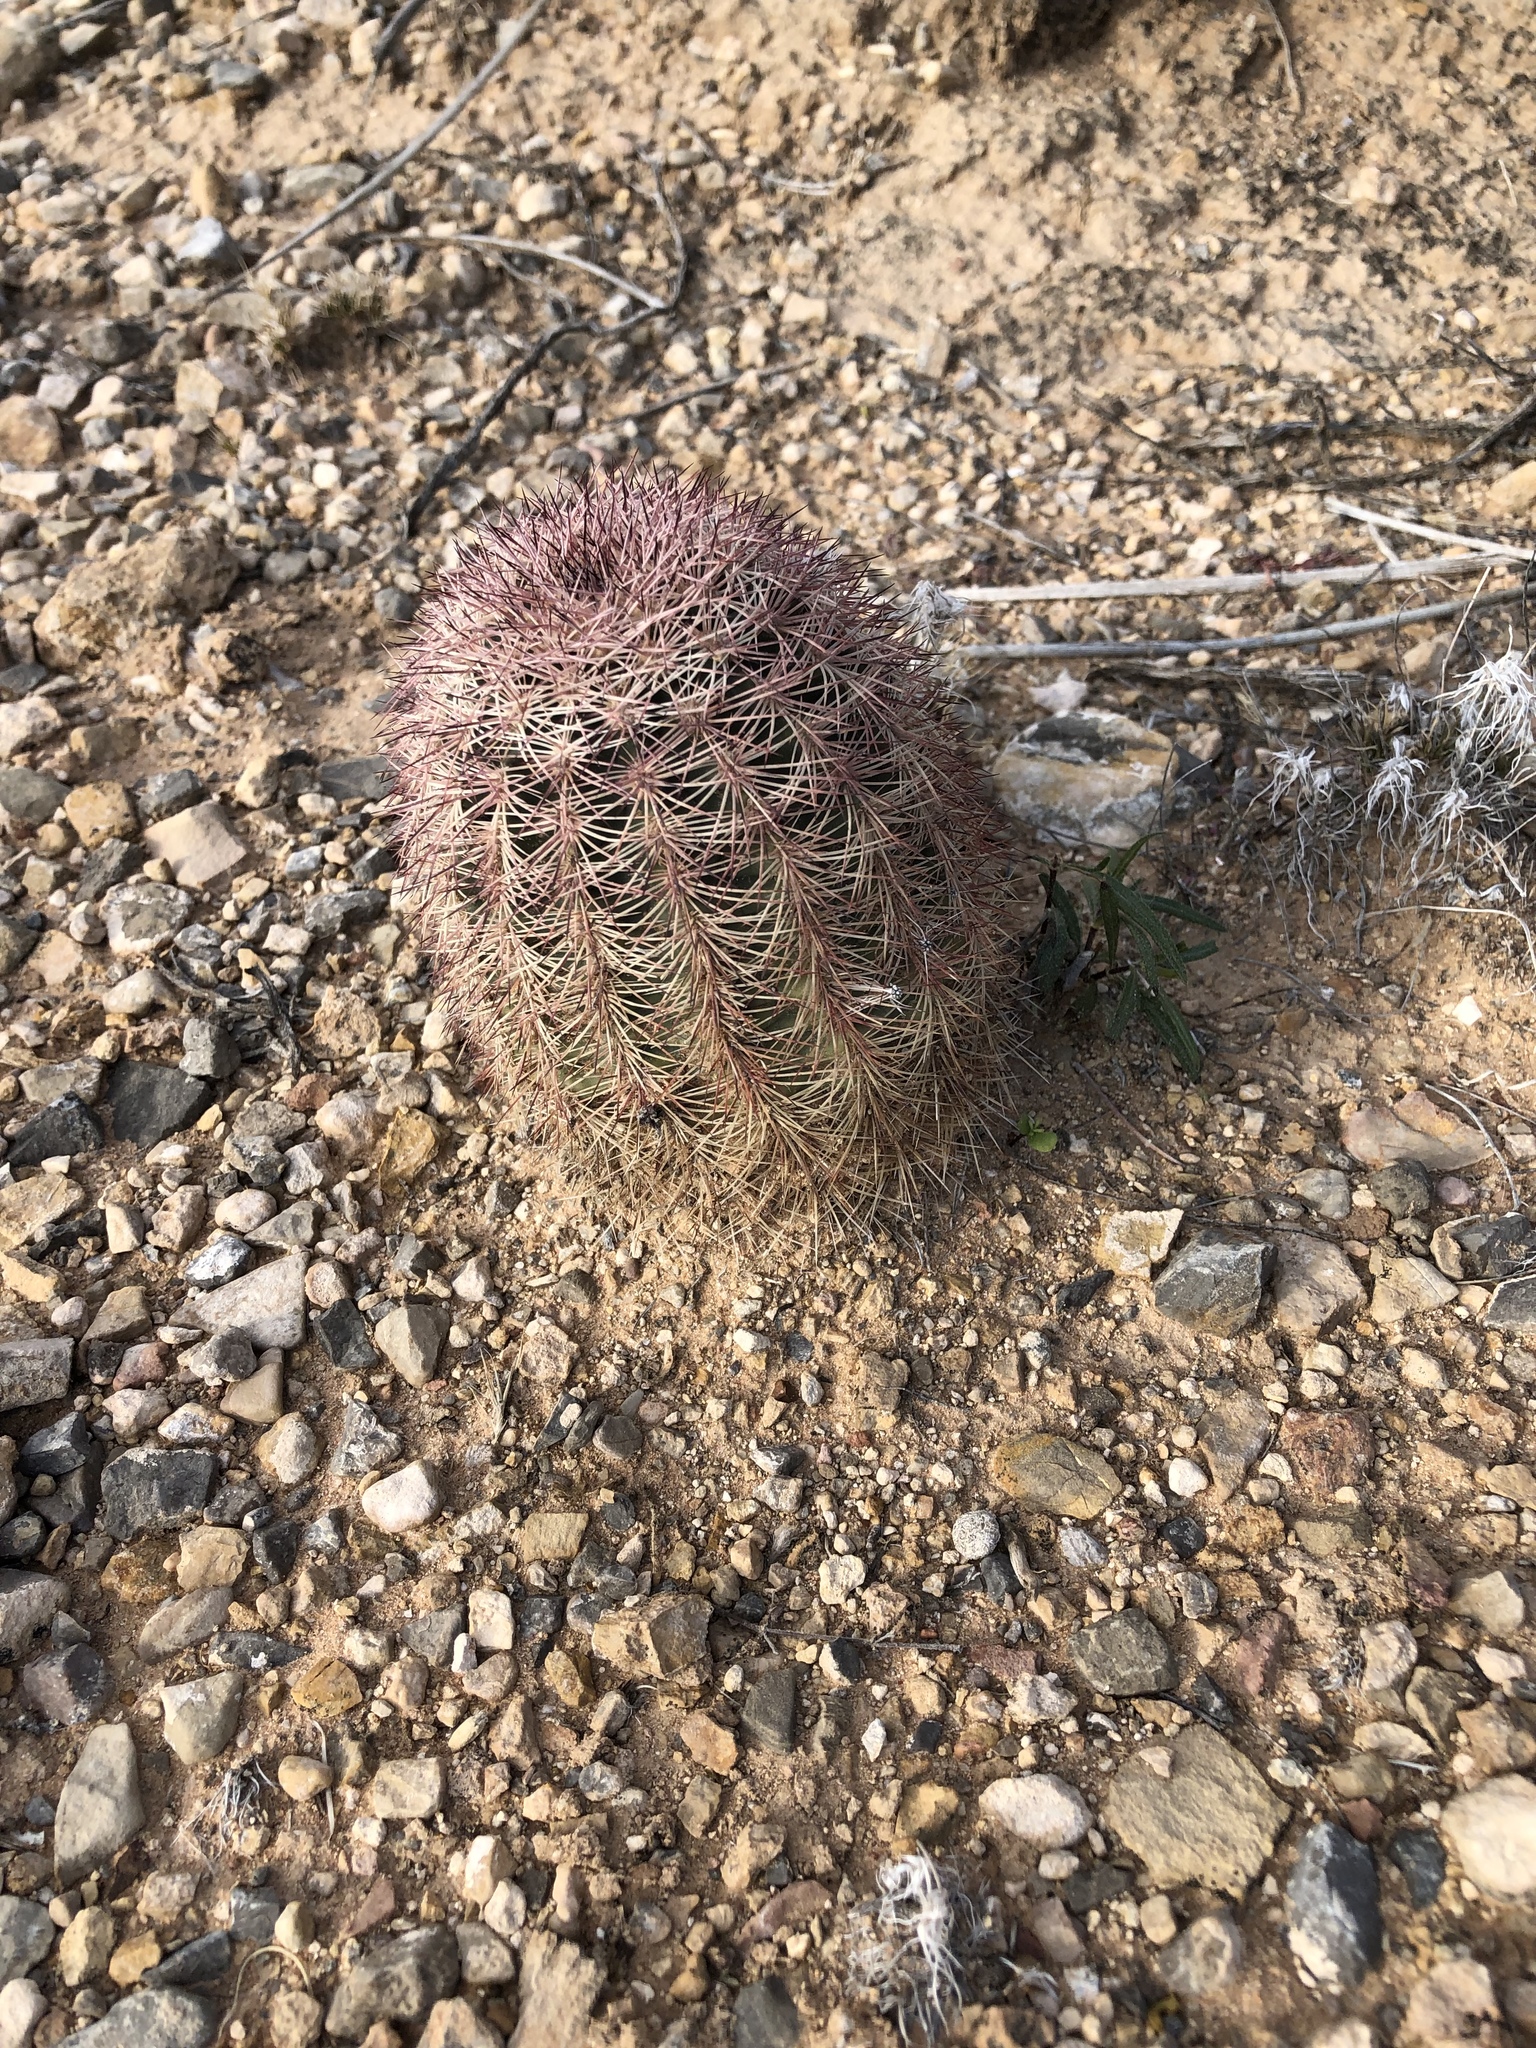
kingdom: Plantae
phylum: Tracheophyta
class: Magnoliopsida
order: Caryophyllales
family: Cactaceae
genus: Echinocereus
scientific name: Echinocereus dasyacanthus
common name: Spiny hedgehog cactus
